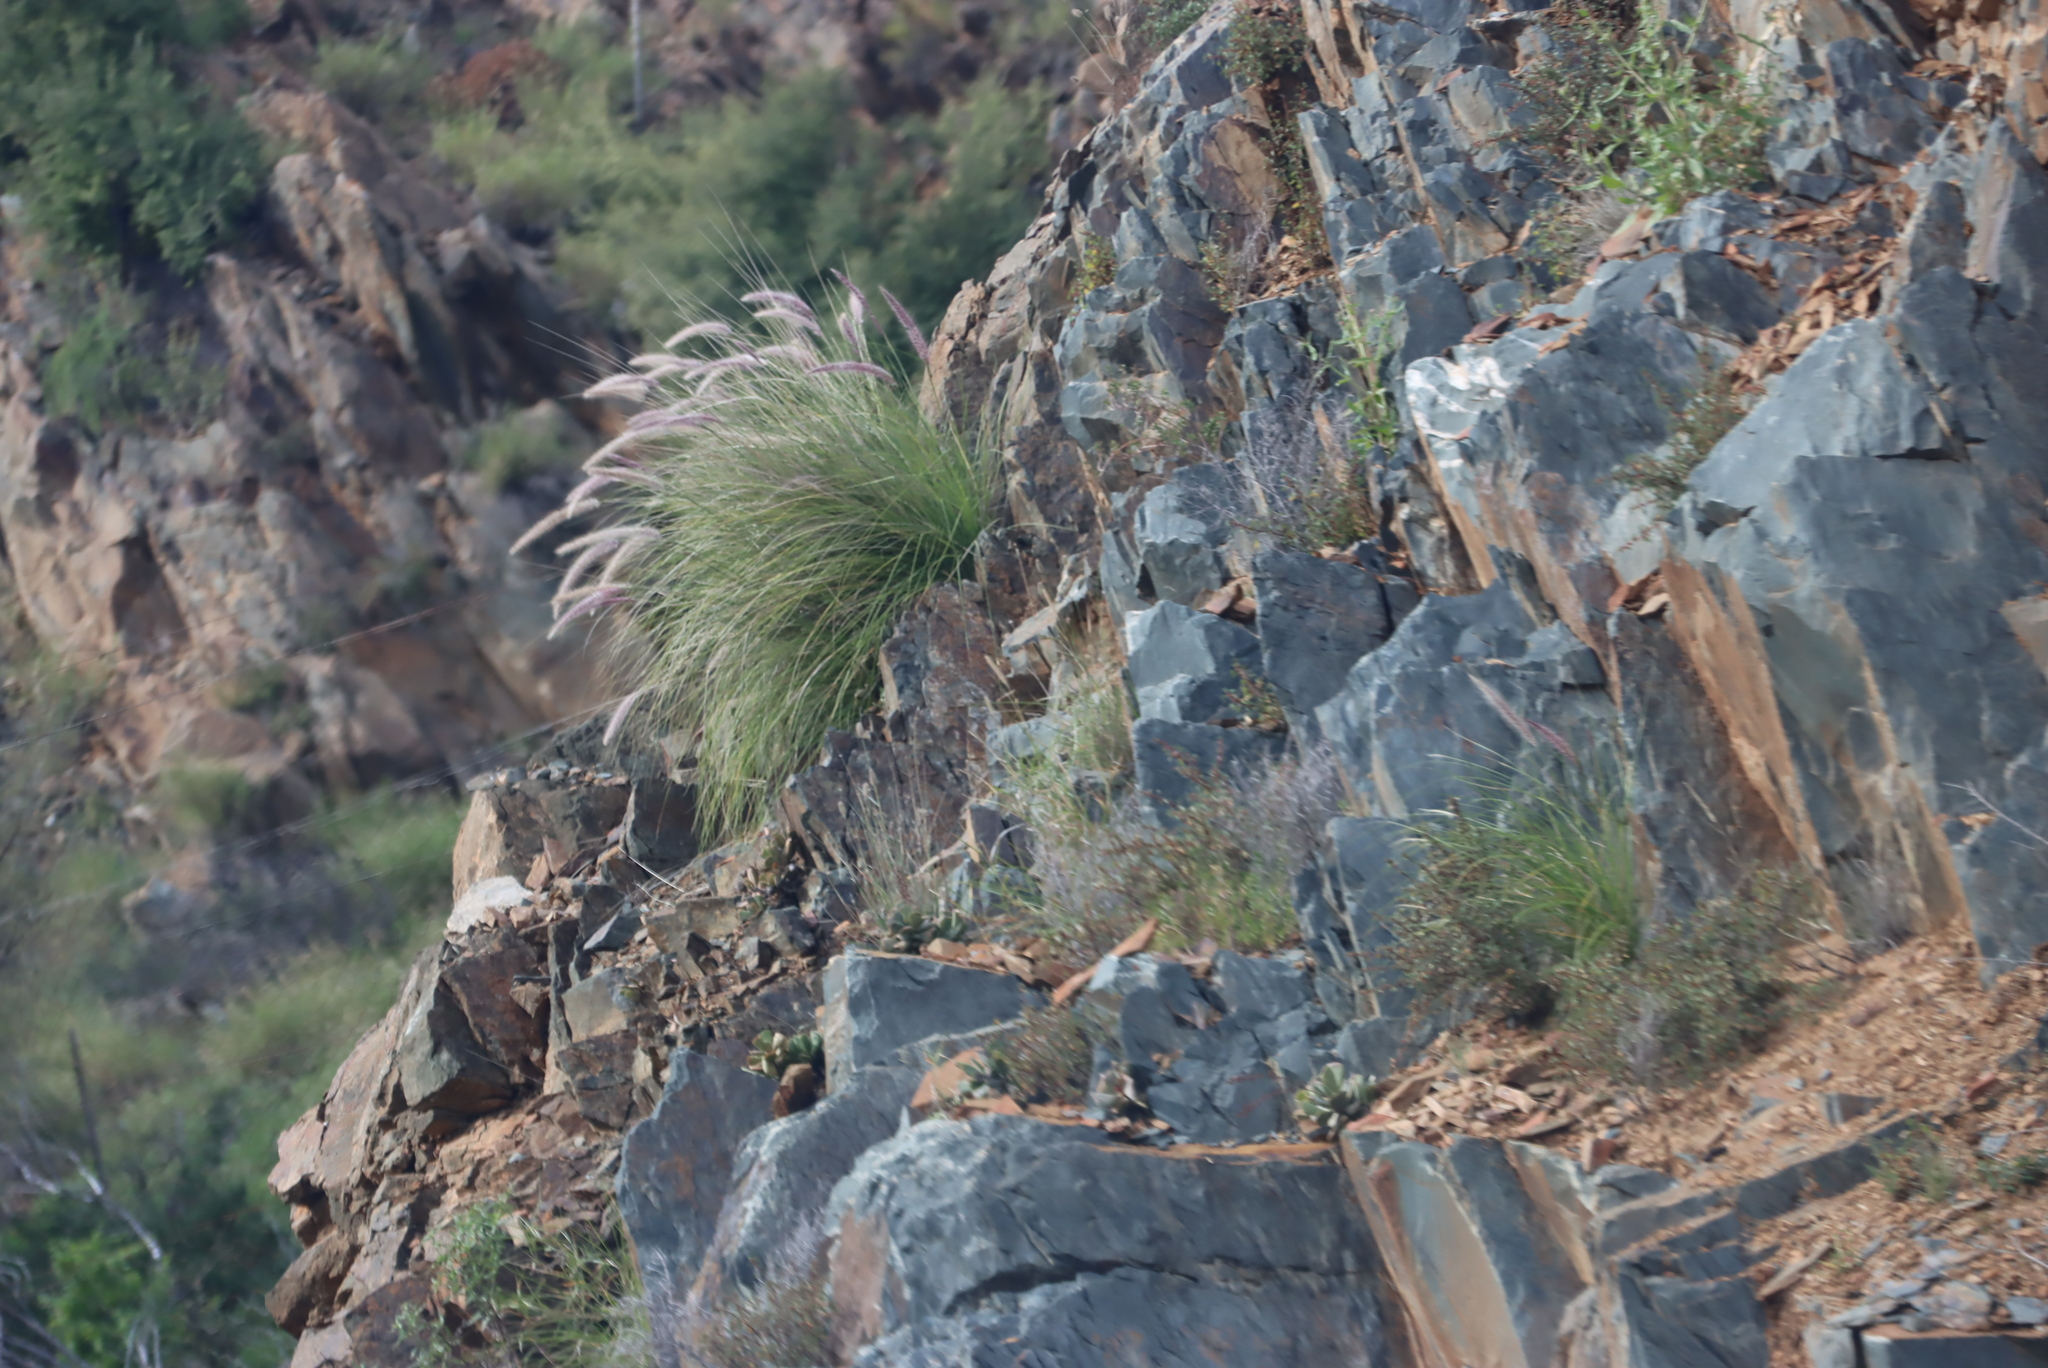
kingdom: Plantae
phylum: Tracheophyta
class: Liliopsida
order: Poales
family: Poaceae
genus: Cenchrus
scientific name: Cenchrus setaceus
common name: Crimson fountaingrass
